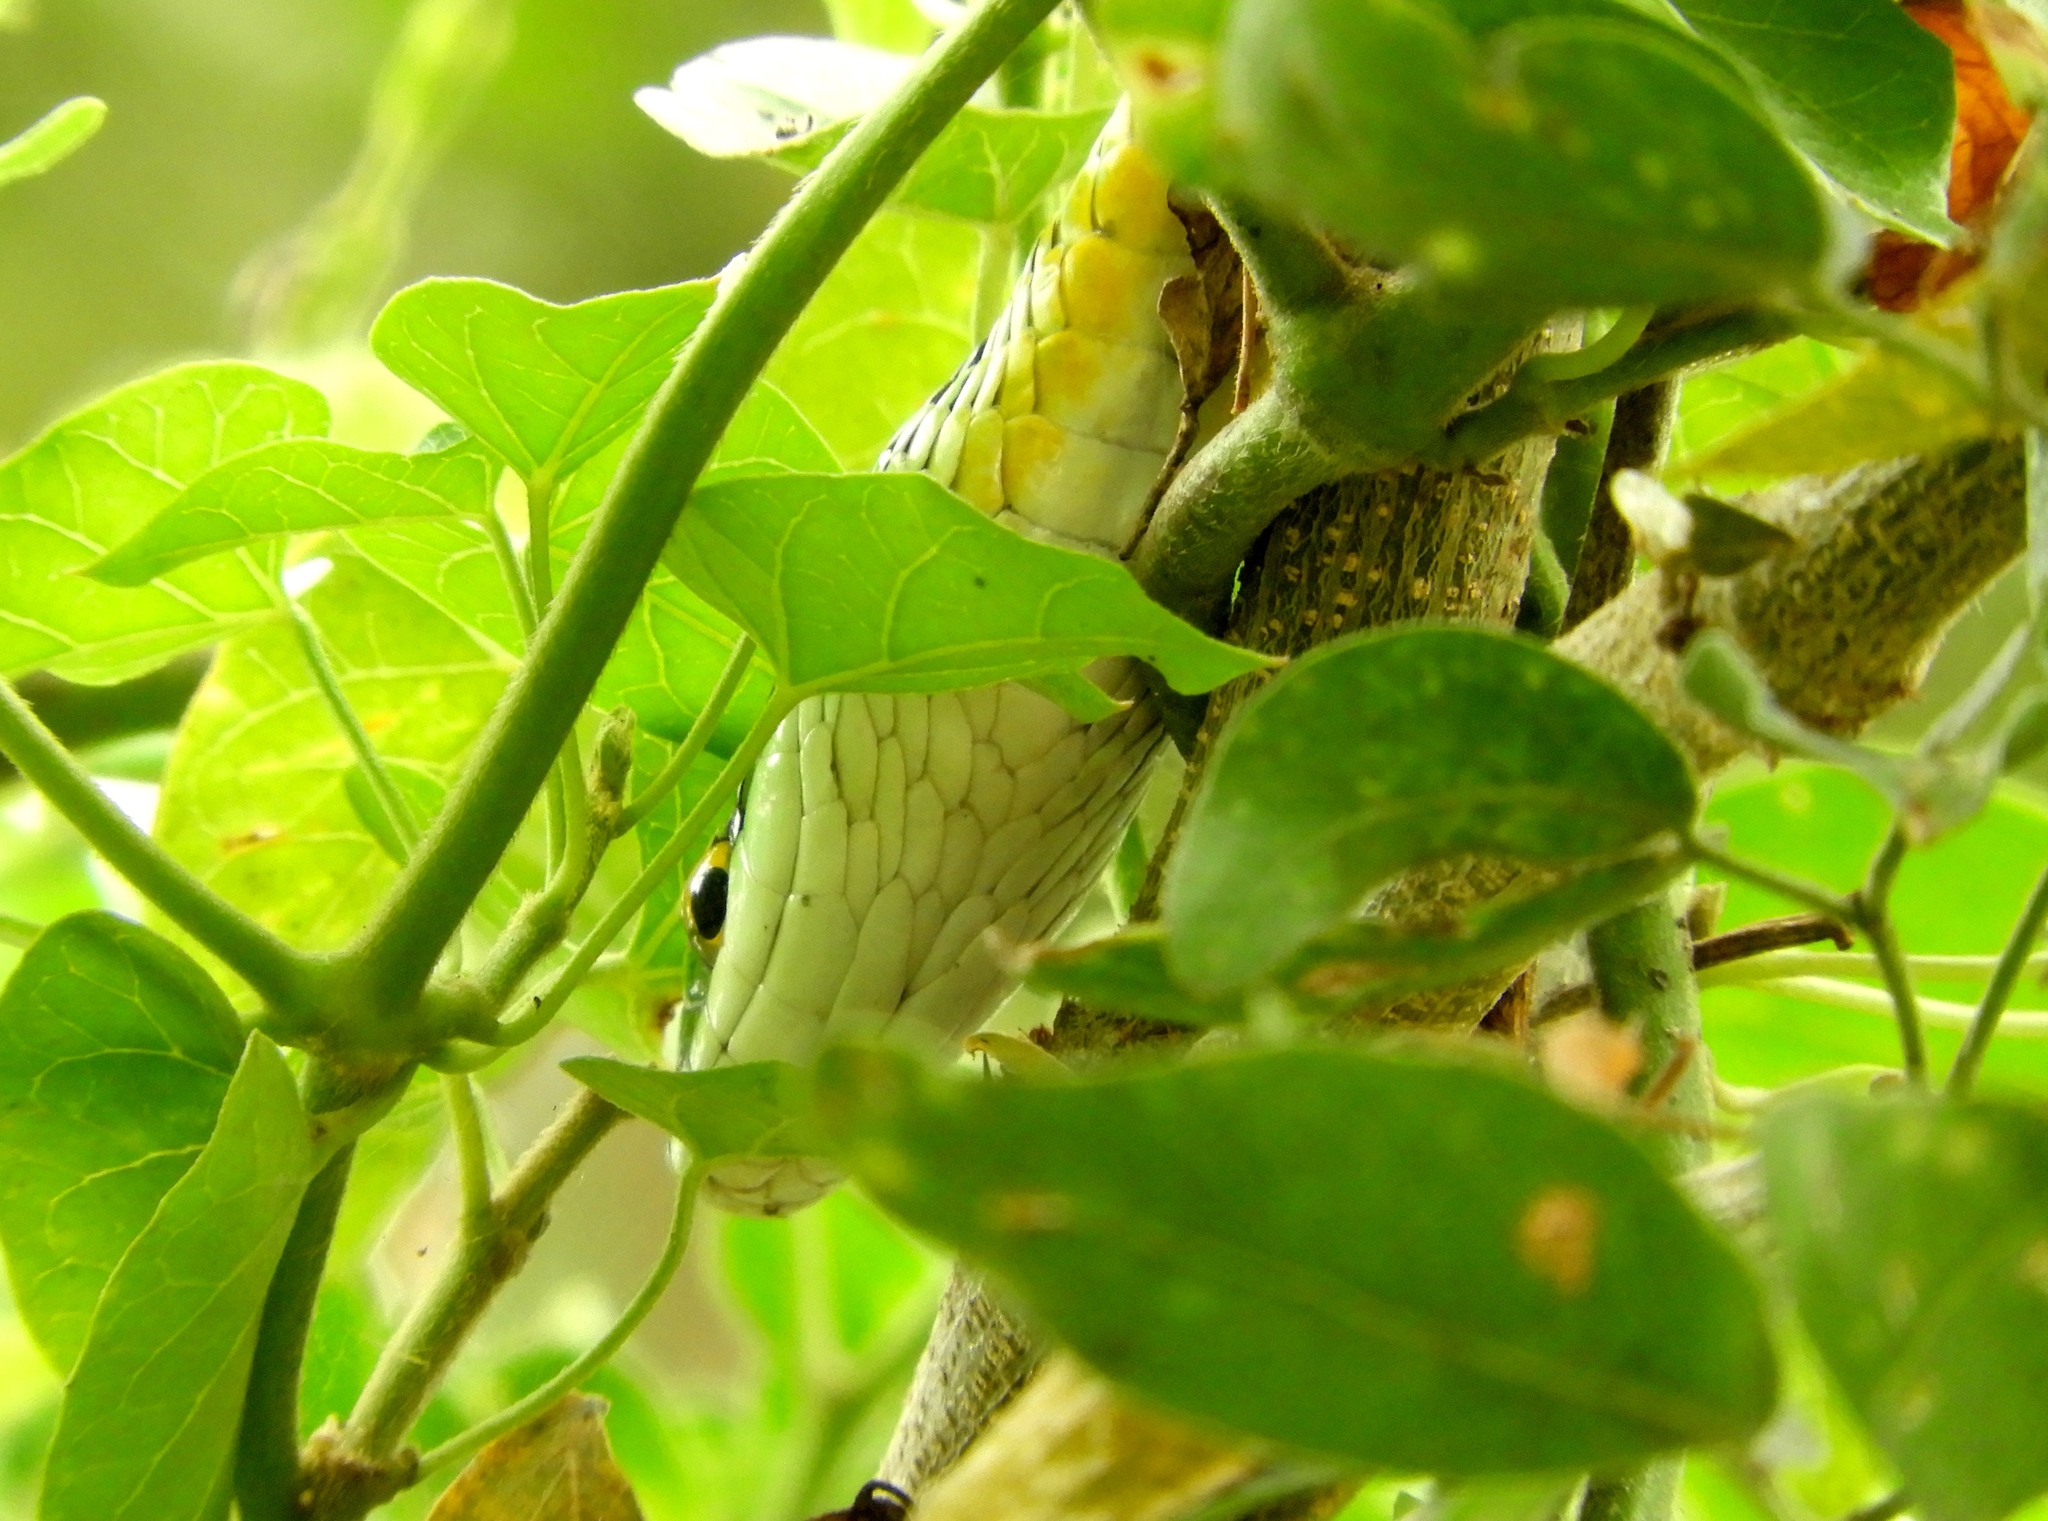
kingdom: Animalia
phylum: Chordata
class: Squamata
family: Colubridae
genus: Leptophis
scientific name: Leptophis diplotropis
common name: Pacific coast parrot snake
